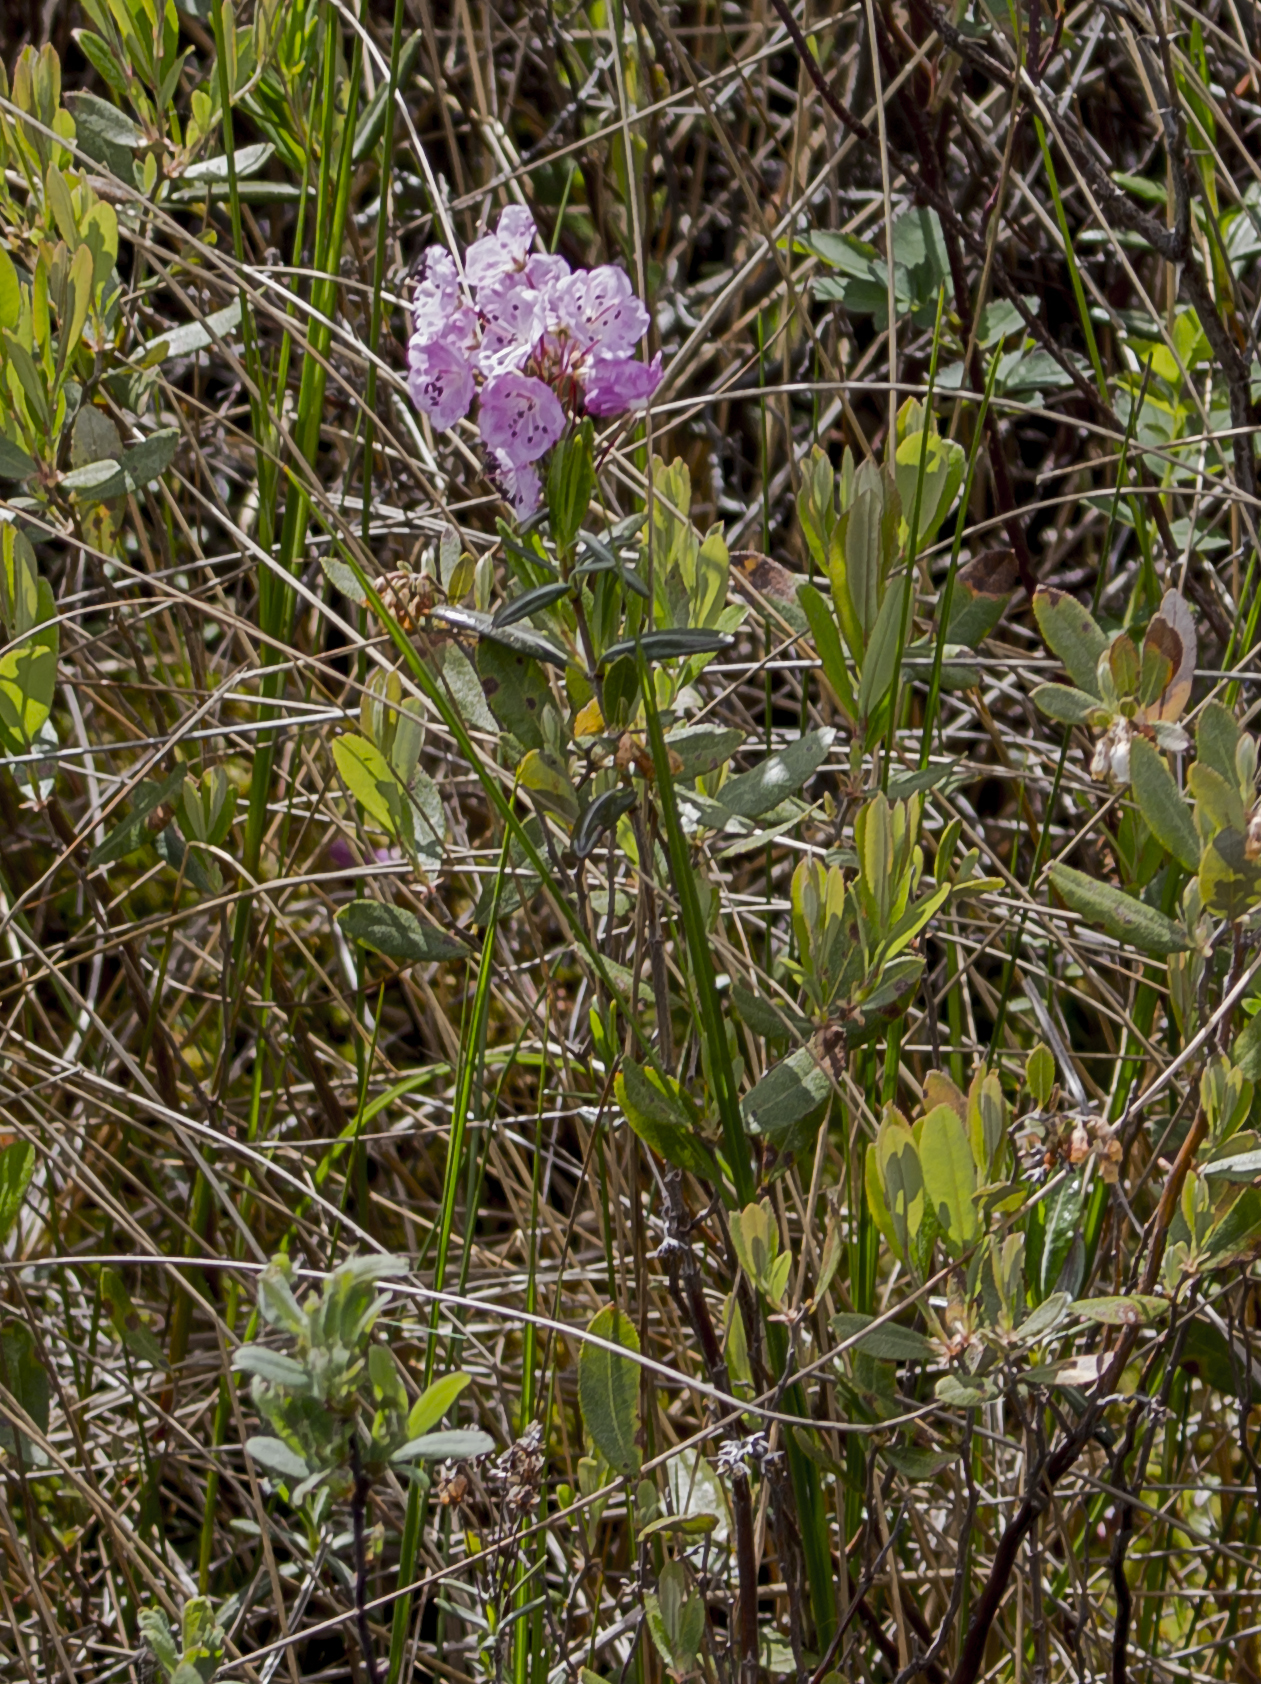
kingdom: Plantae
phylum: Tracheophyta
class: Magnoliopsida
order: Ericales
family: Ericaceae
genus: Kalmia
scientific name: Kalmia polifolia
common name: Bog-laurel
